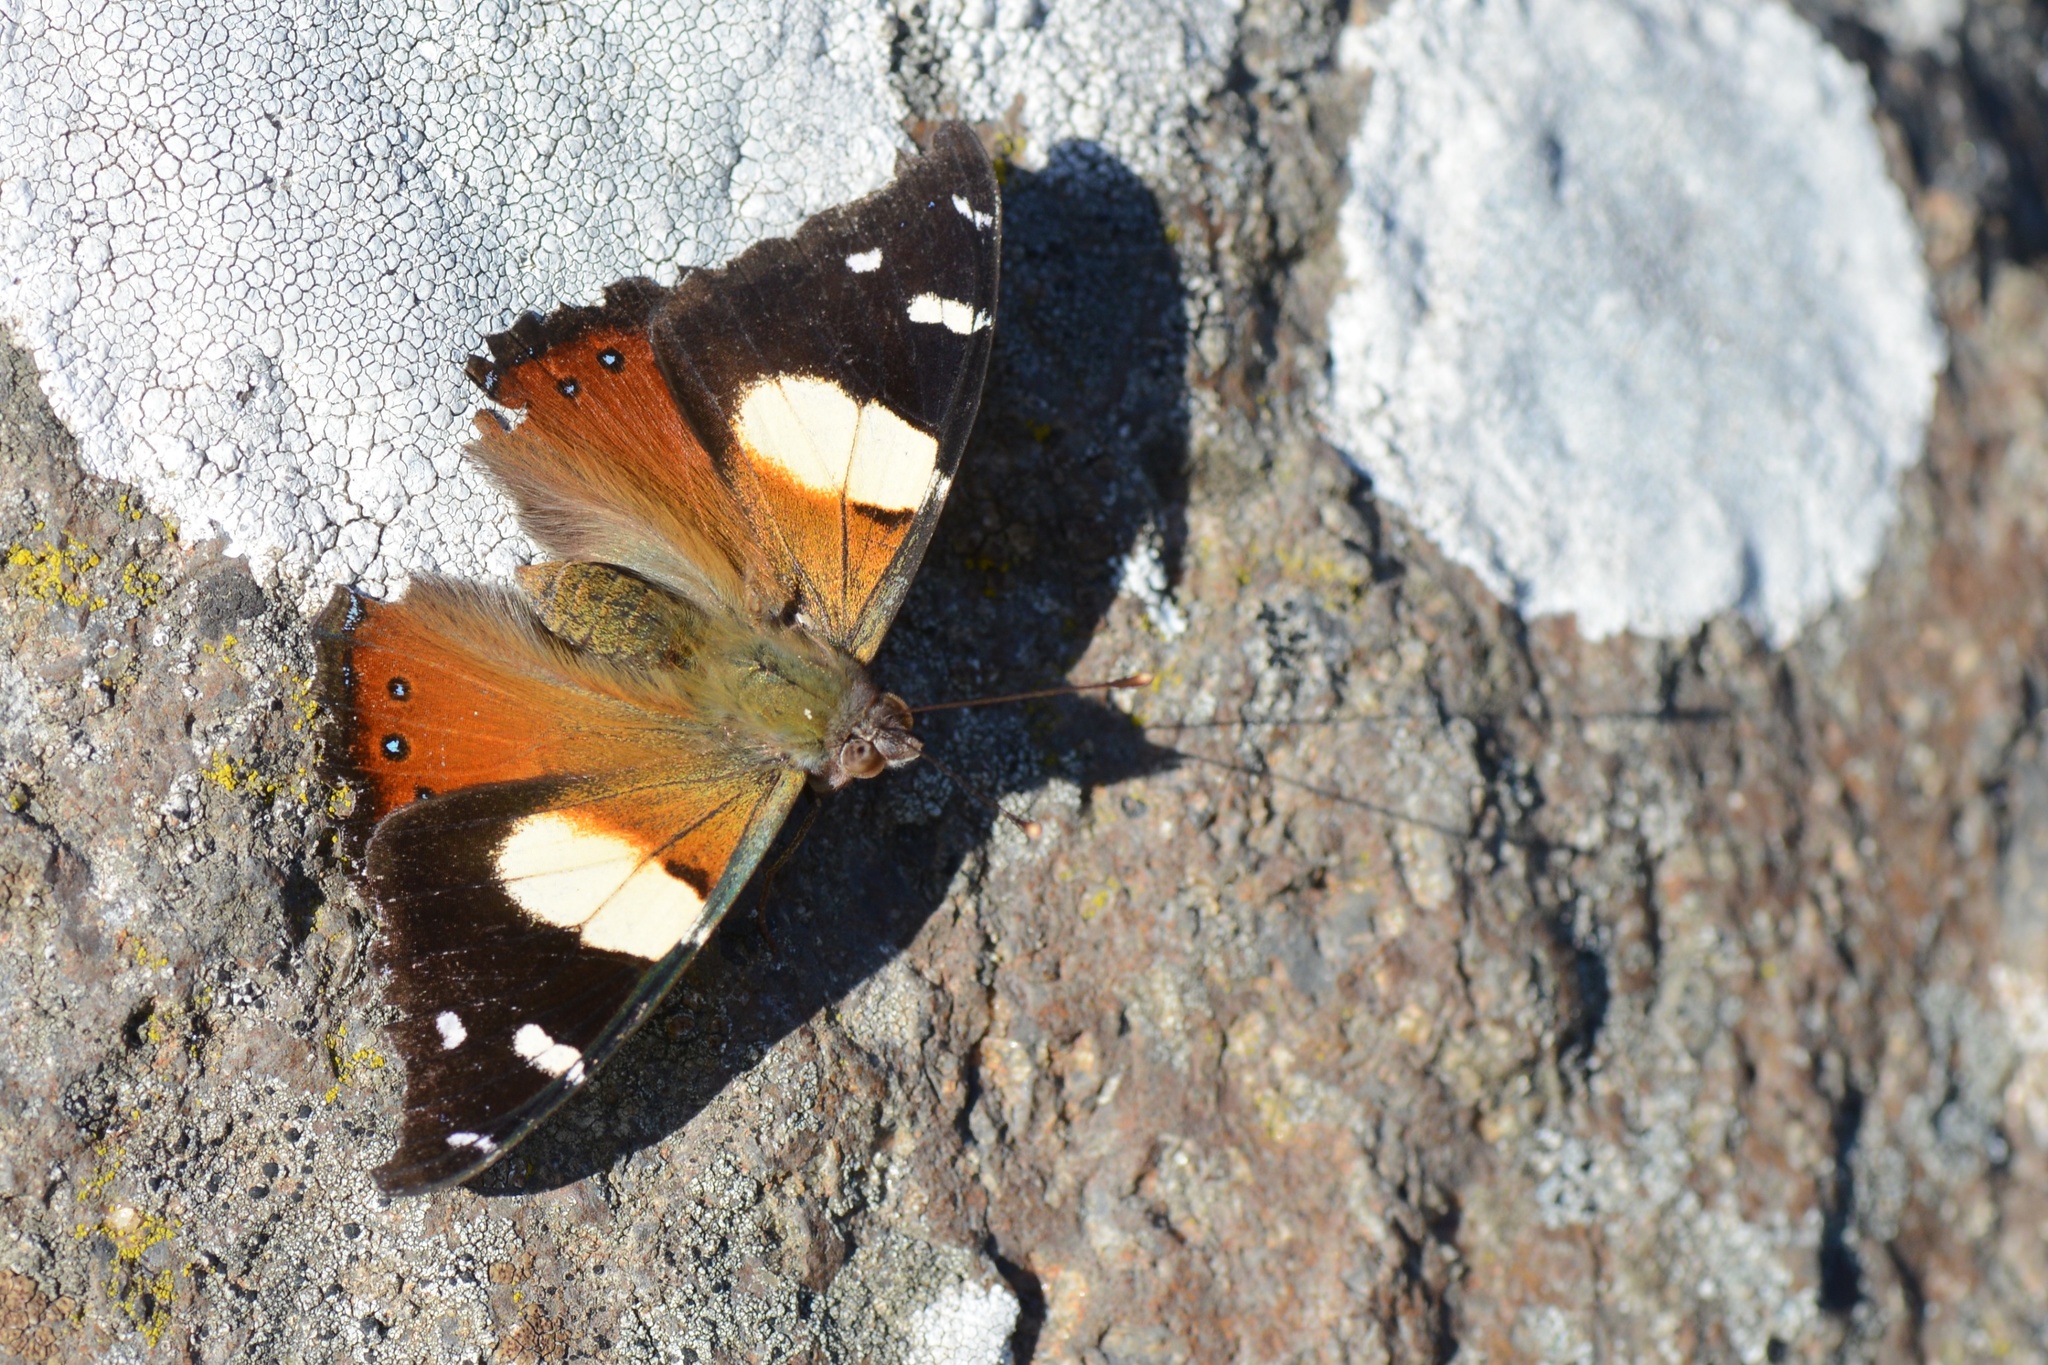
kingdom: Animalia
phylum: Arthropoda
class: Insecta
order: Lepidoptera
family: Nymphalidae
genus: Vanessa
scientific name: Vanessa itea
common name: Yellow admiral
